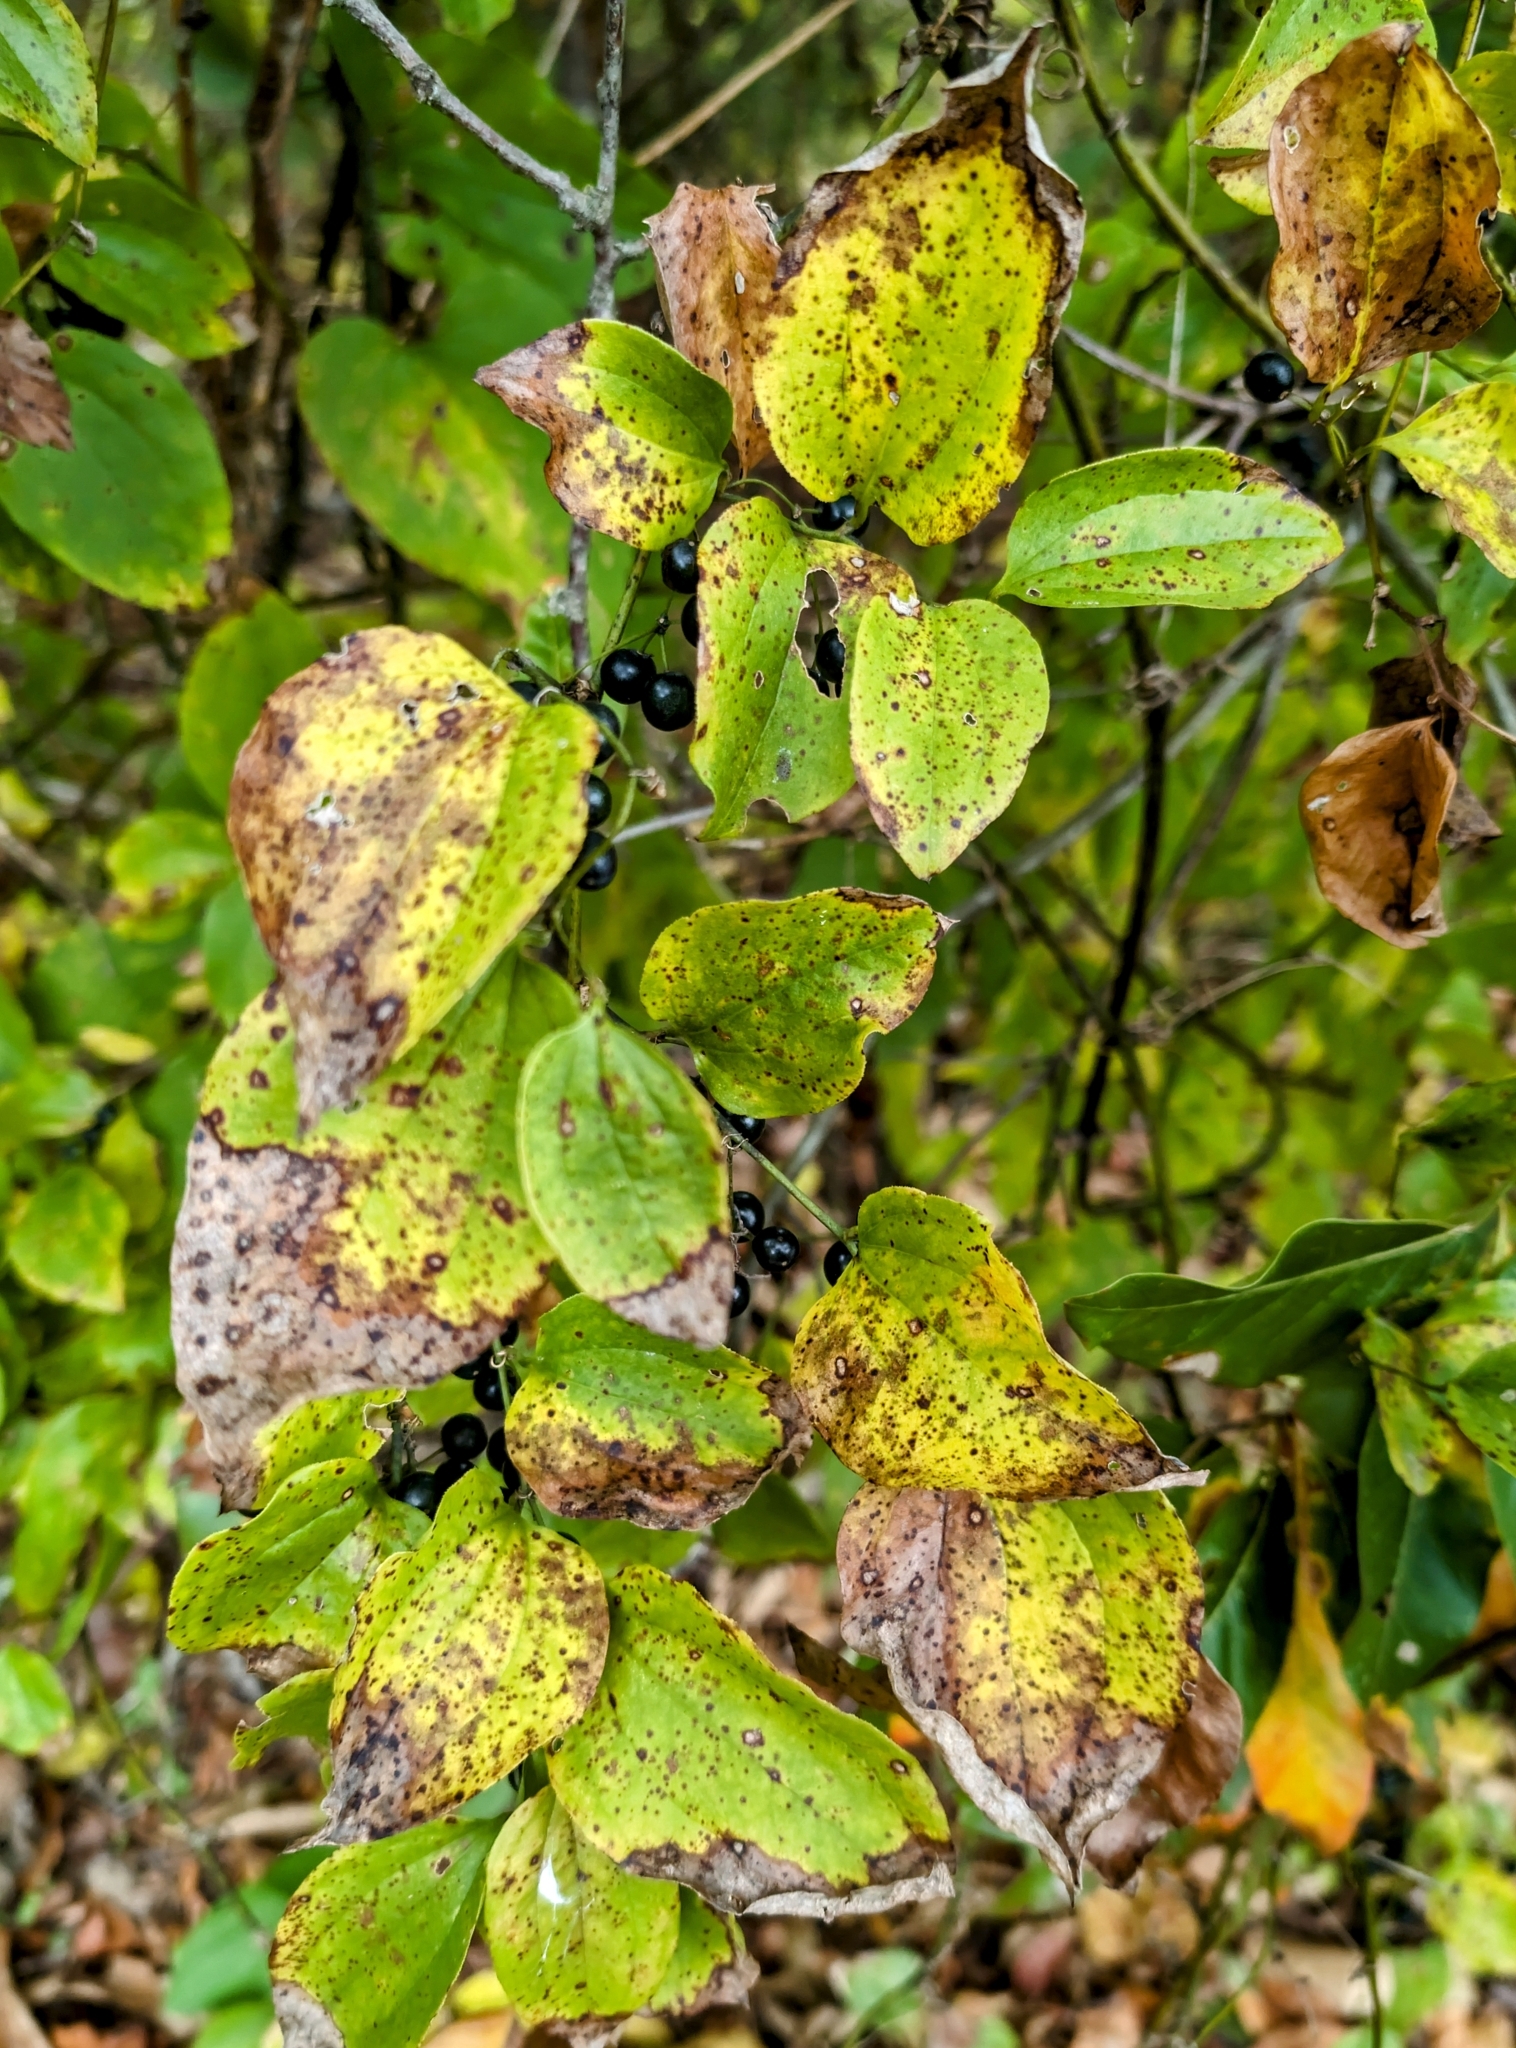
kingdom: Plantae
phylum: Tracheophyta
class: Liliopsida
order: Liliales
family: Smilacaceae
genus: Smilax
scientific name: Smilax tamnoides
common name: Hellfetter
